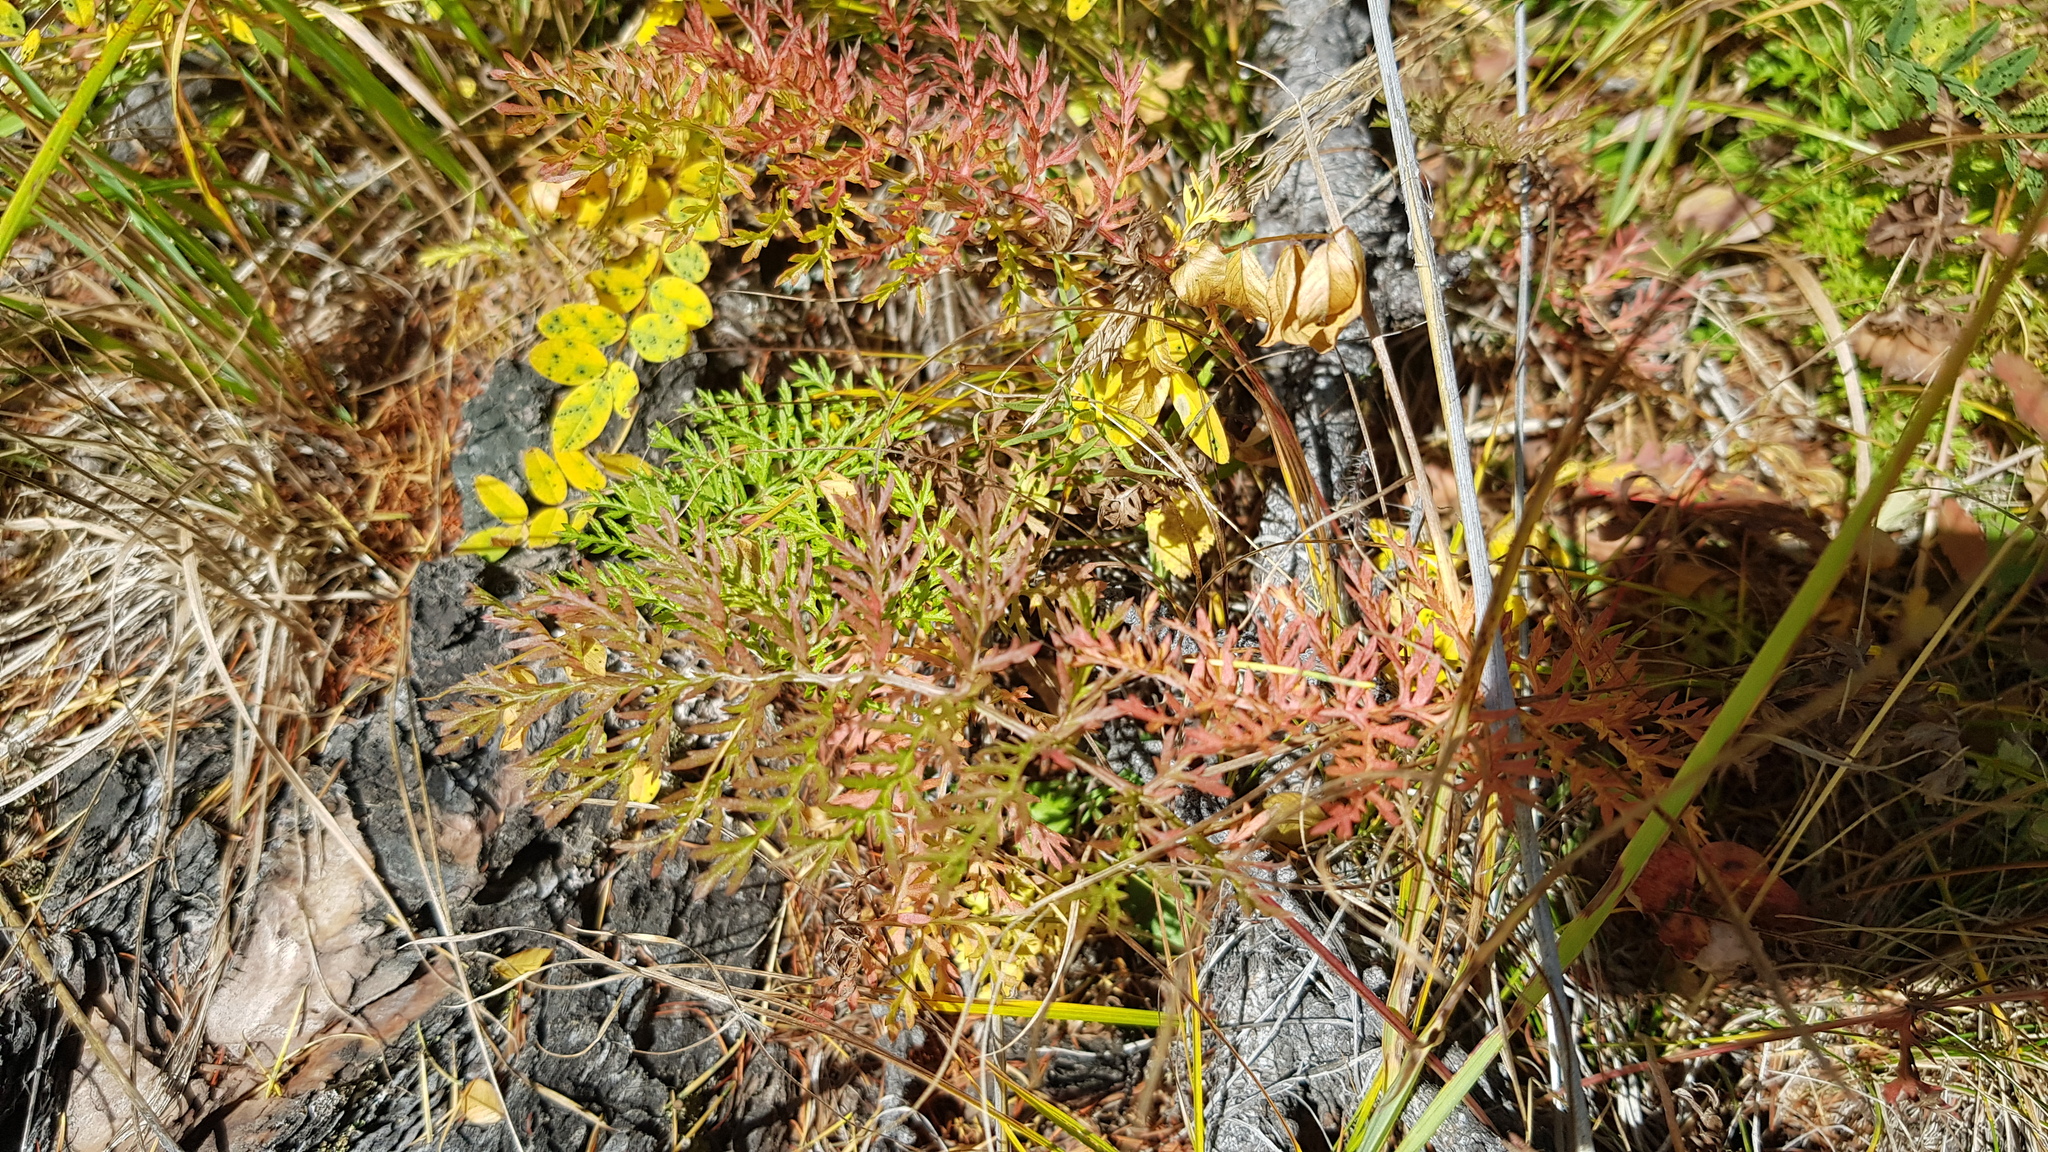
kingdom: Plantae
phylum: Tracheophyta
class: Magnoliopsida
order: Lamiales
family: Orobanchaceae
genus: Pedicularis
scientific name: Pedicularis rubens
